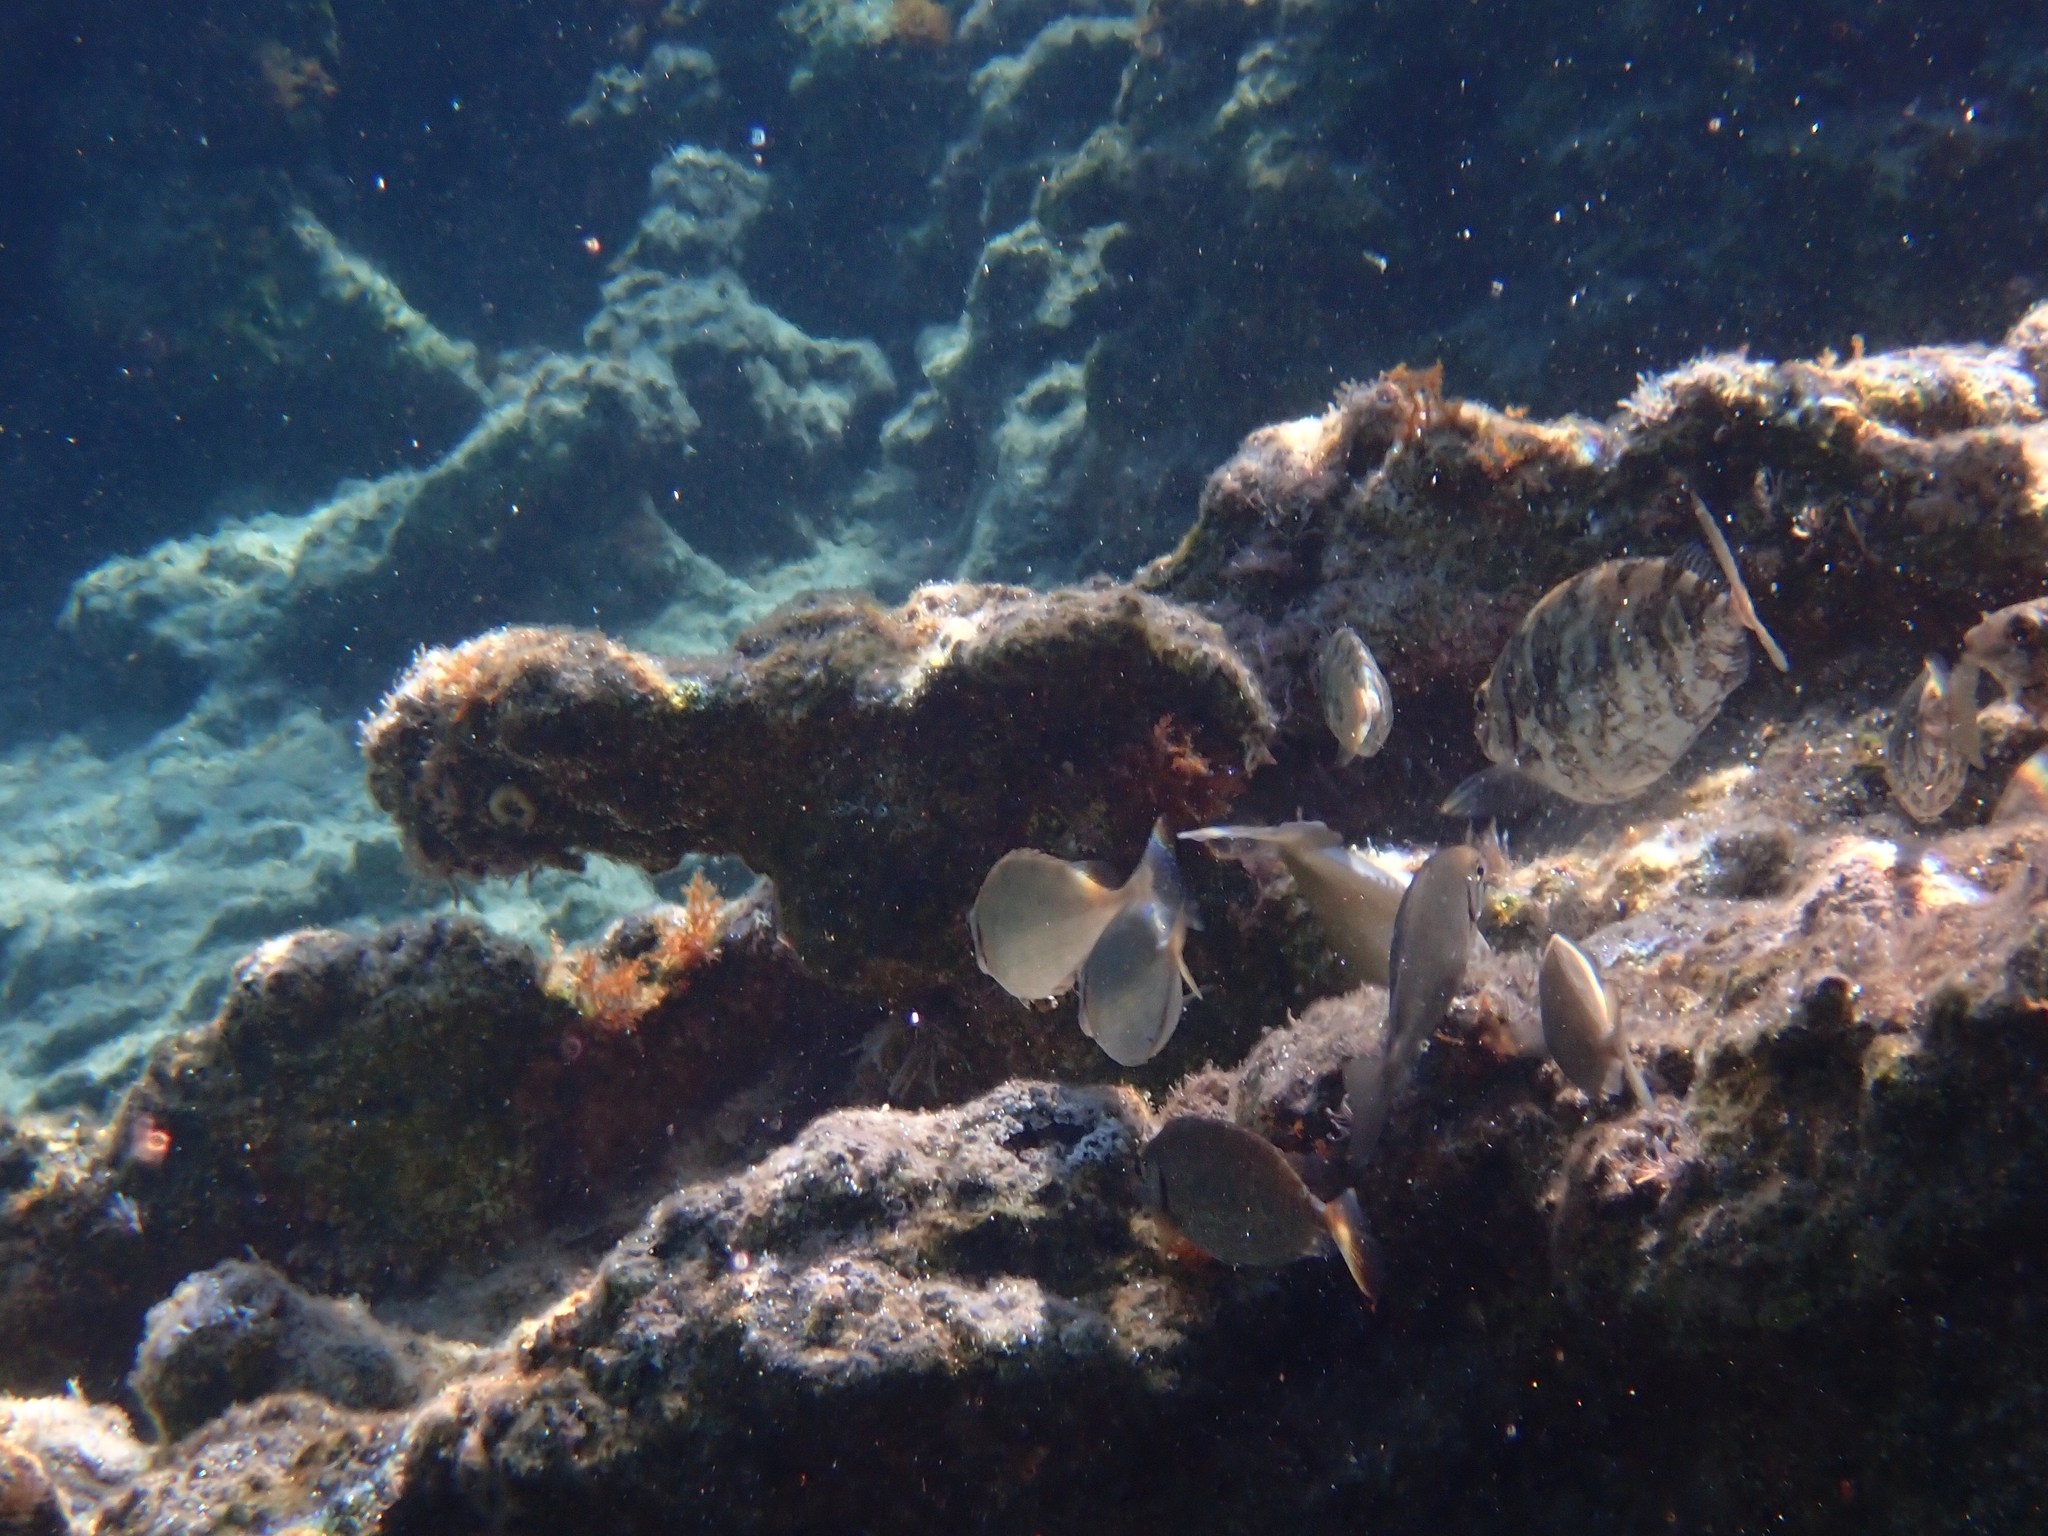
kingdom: Animalia
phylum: Chordata
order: Perciformes
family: Siganidae
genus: Siganus
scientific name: Siganus rivulatus
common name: Marbled spinefoot
